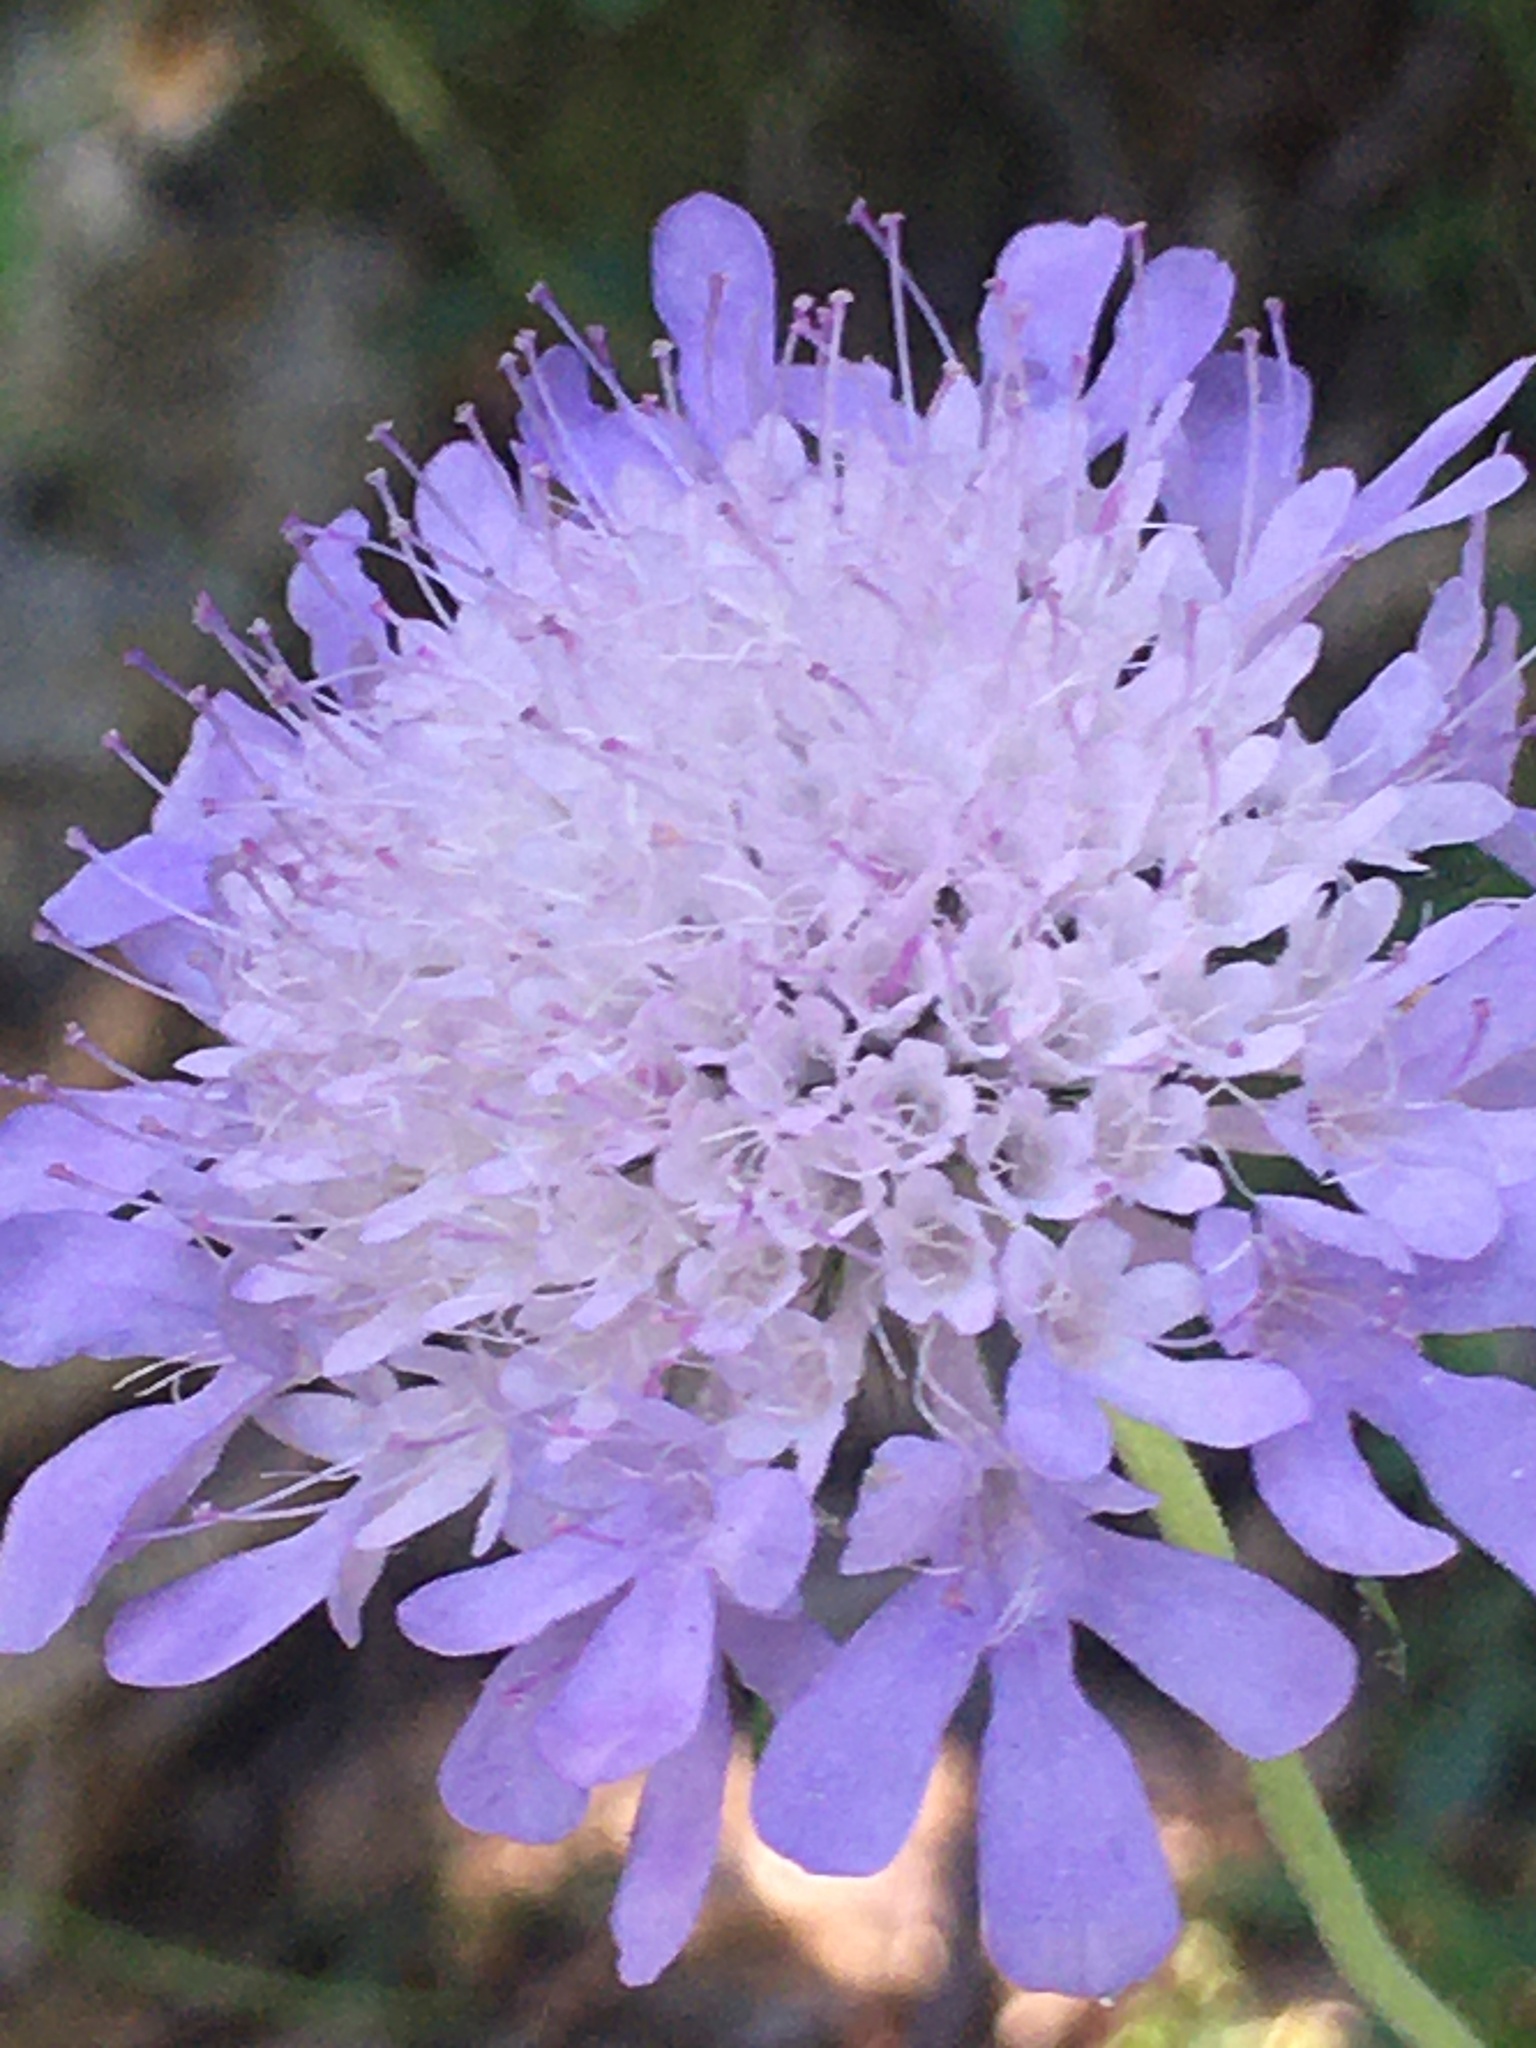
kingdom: Plantae
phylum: Tracheophyta
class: Magnoliopsida
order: Dipsacales
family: Caprifoliaceae
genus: Scabiosa
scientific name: Scabiosa columbaria
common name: Small scabious
